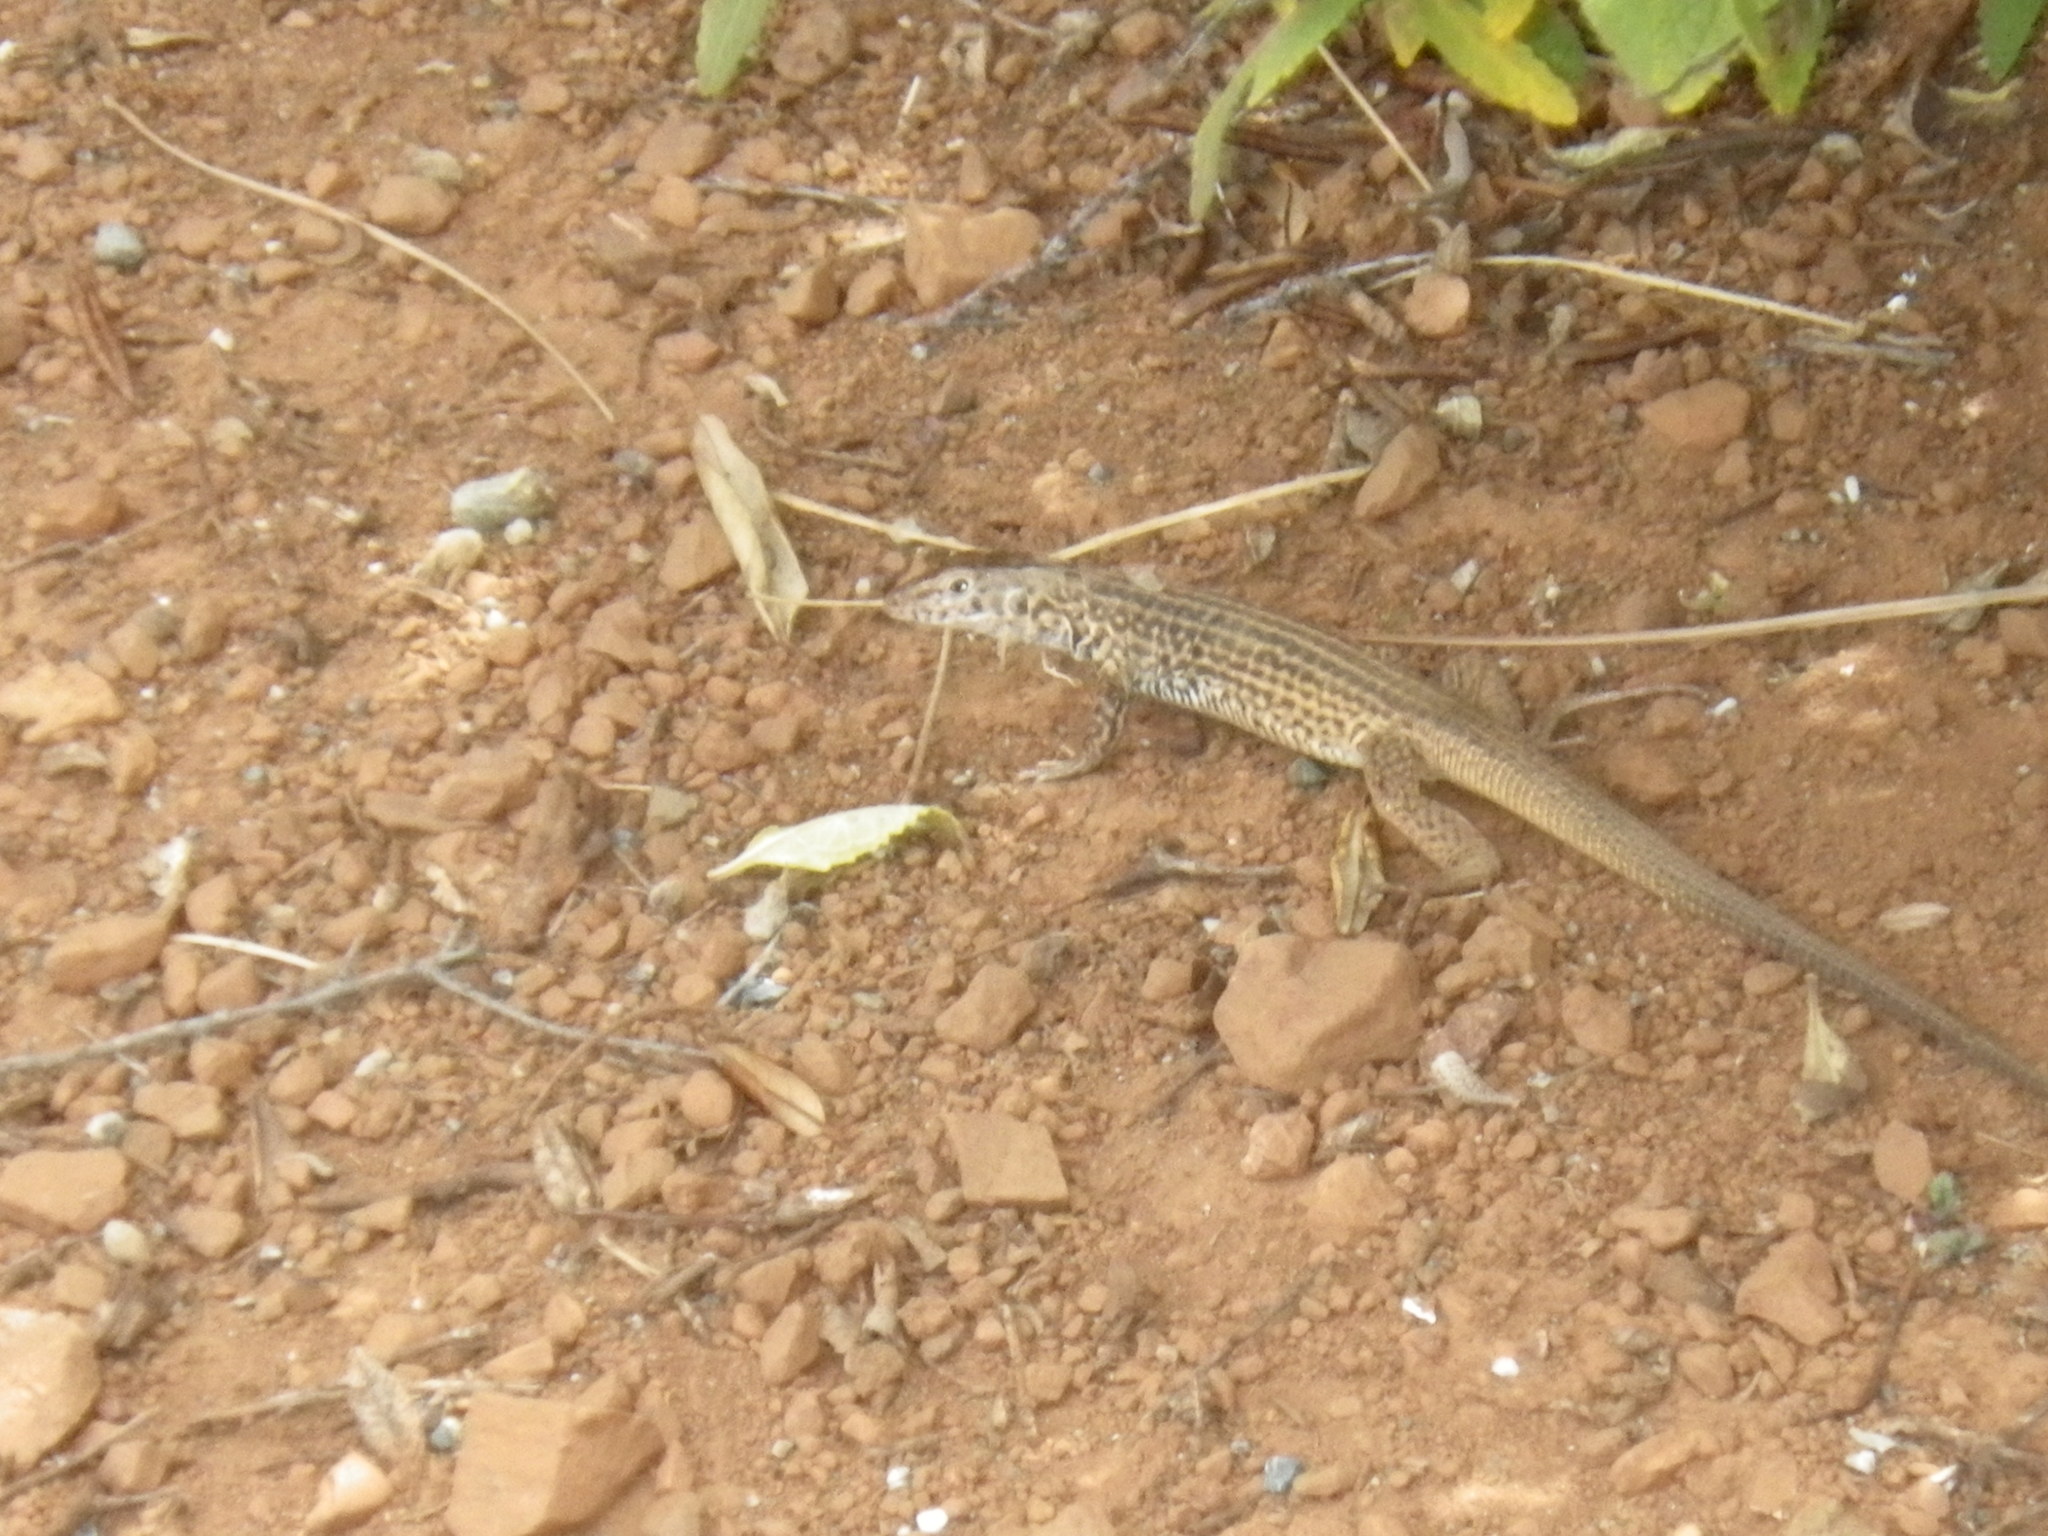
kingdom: Animalia
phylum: Chordata
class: Squamata
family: Teiidae
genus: Aspidoscelis
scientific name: Aspidoscelis tigris
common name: Tiger whiptail
